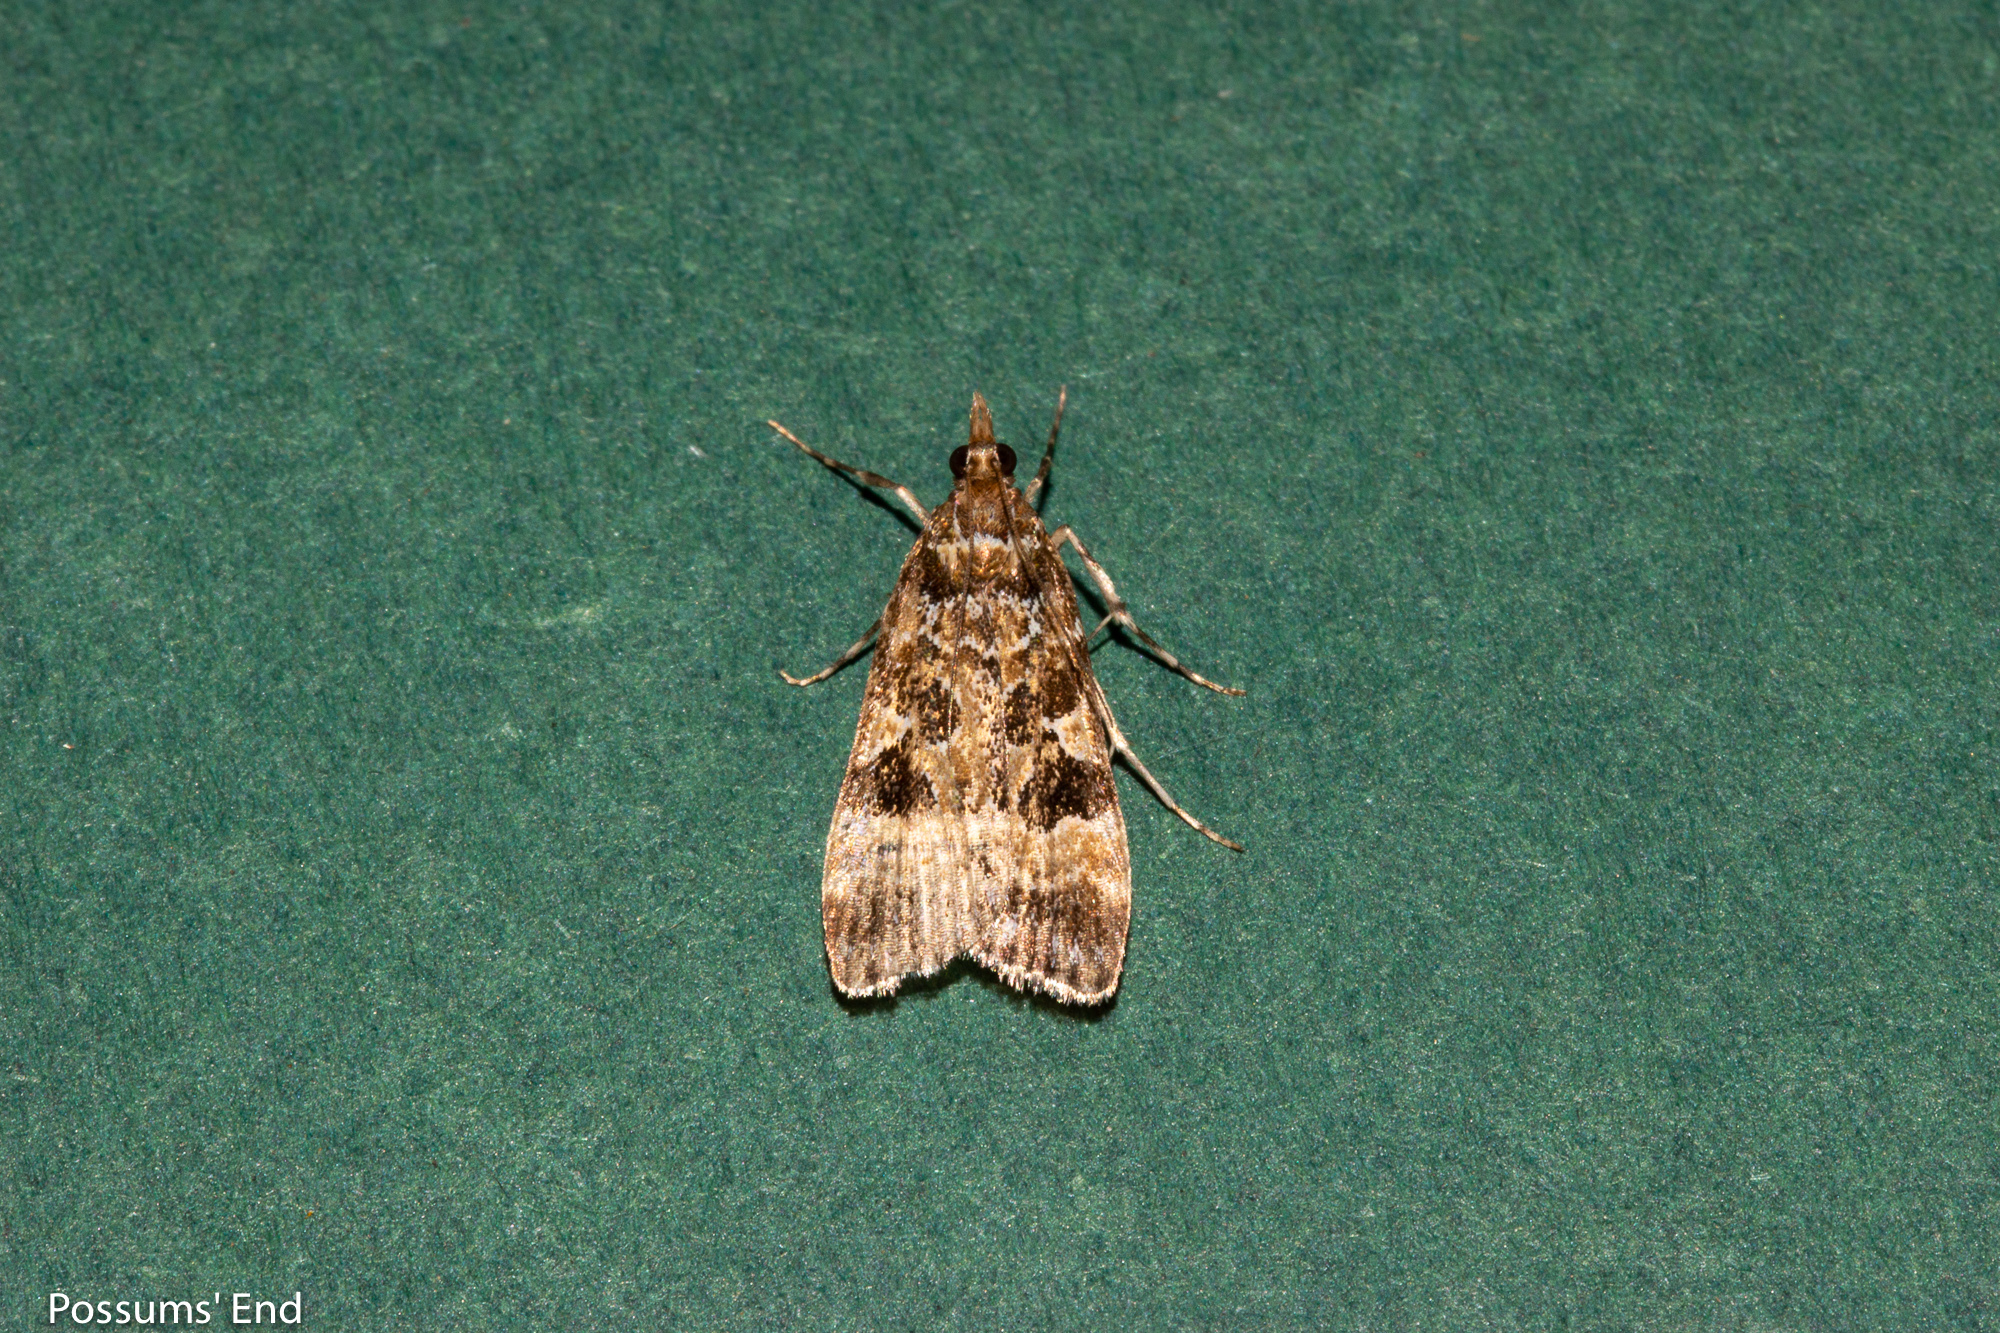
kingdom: Animalia
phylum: Arthropoda
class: Insecta
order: Lepidoptera
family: Crambidae
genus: Scoparia
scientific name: Scoparia ustimacula
